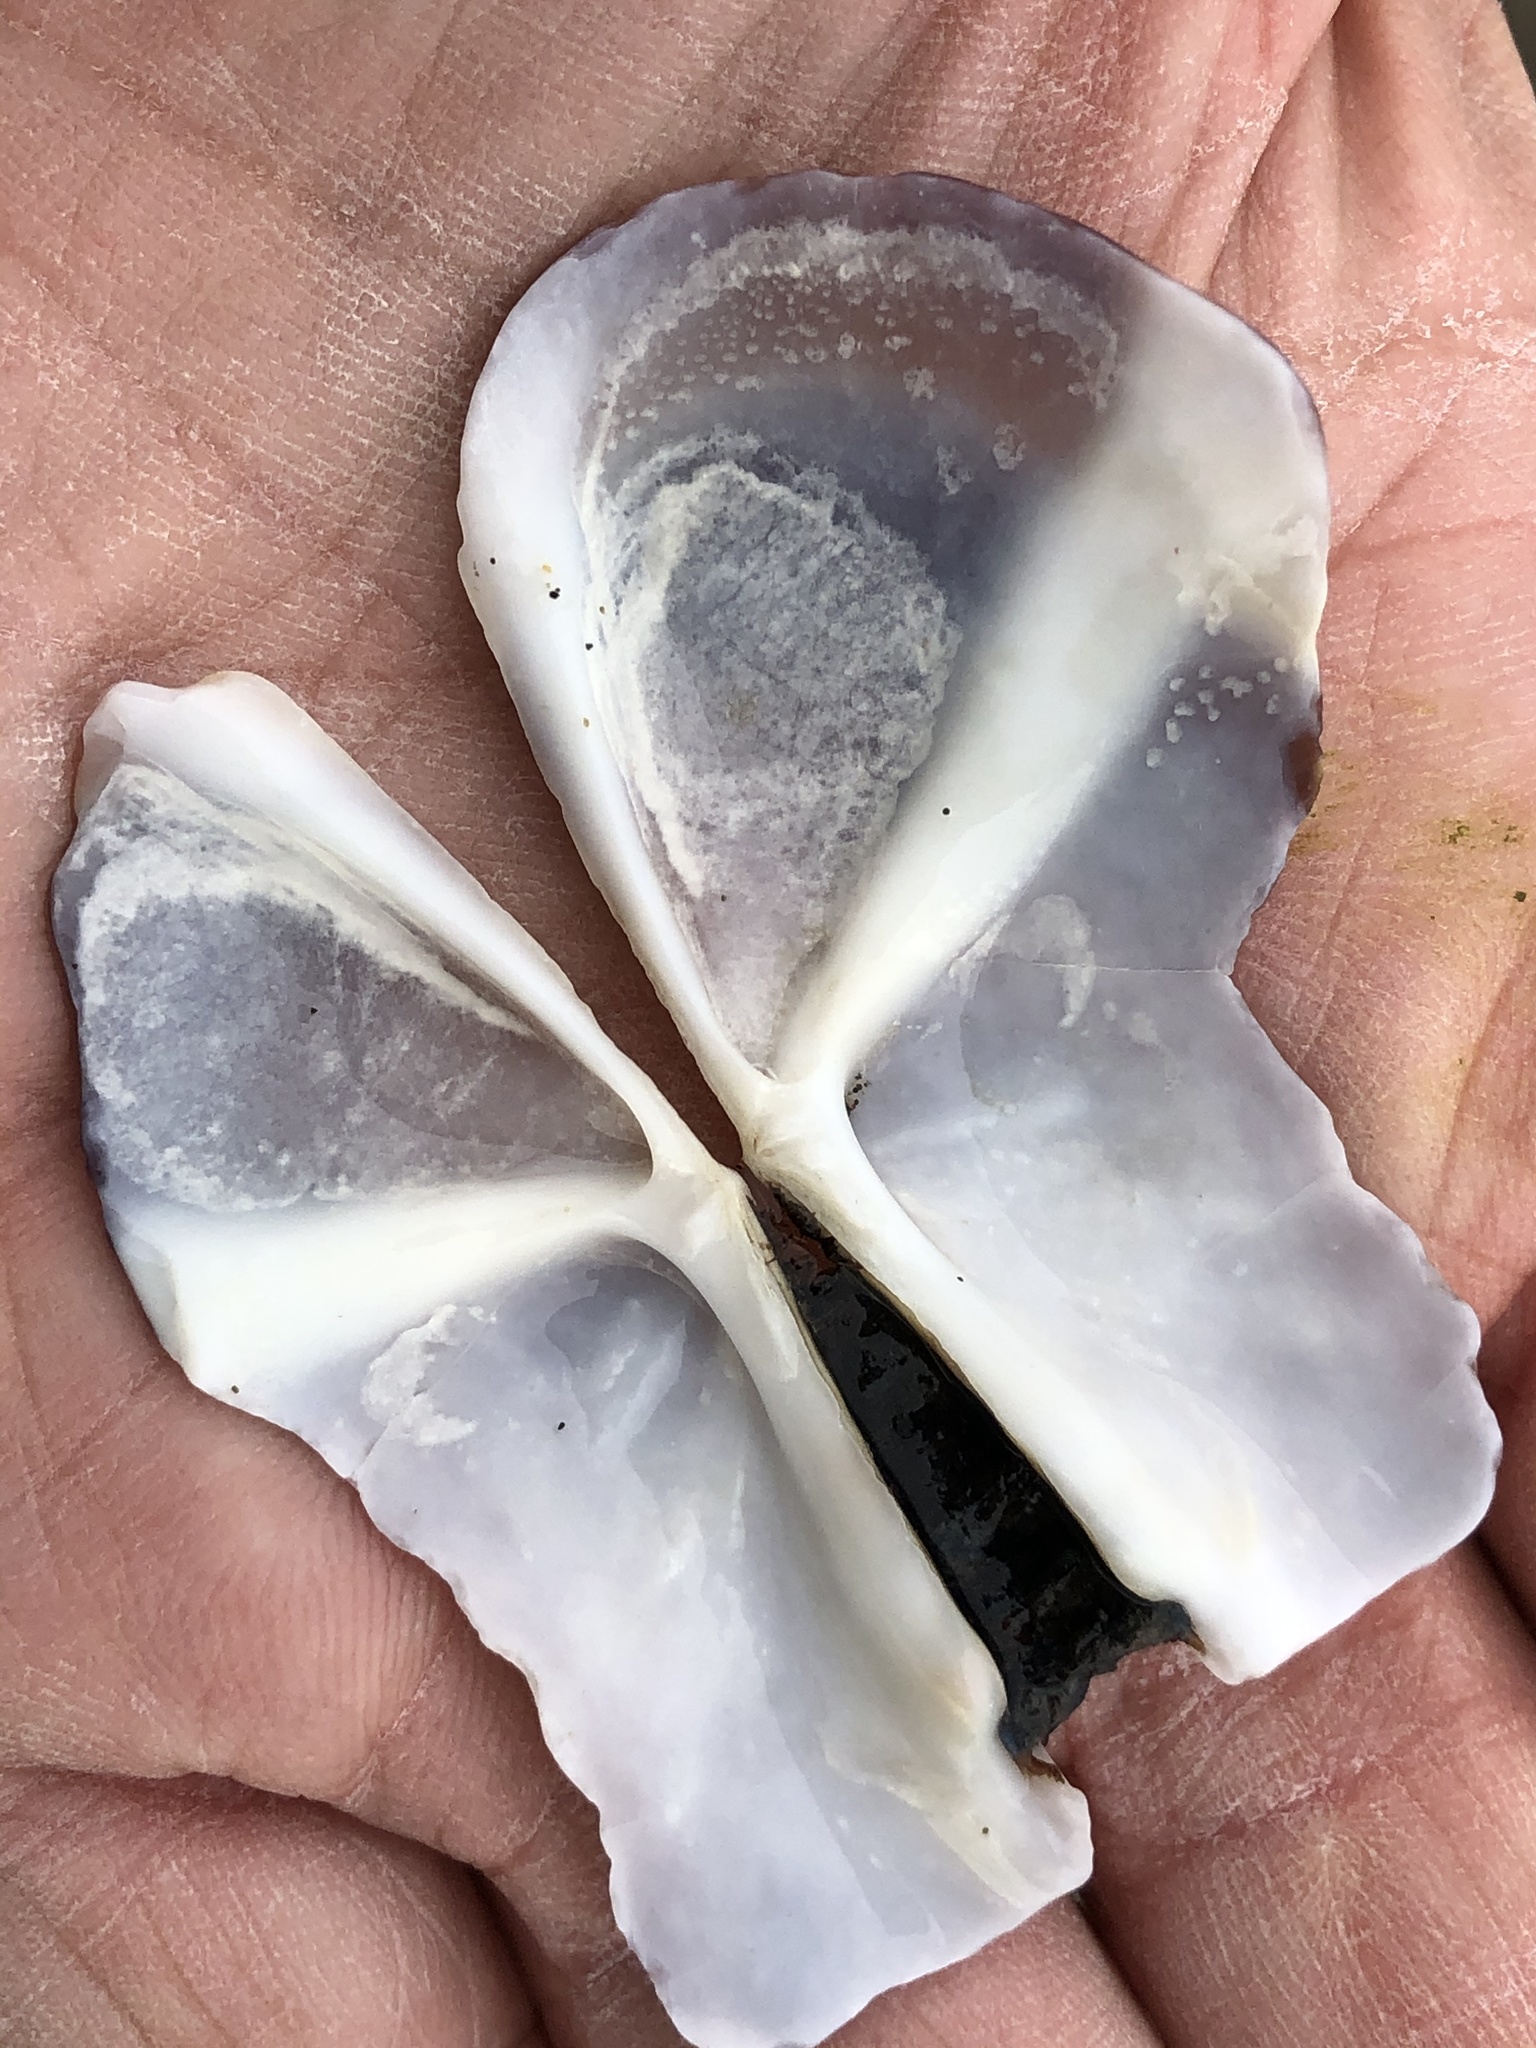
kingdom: Animalia
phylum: Mollusca
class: Bivalvia
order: Adapedonta
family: Pharidae
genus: Siliqua
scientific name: Siliqua patula
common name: Pacific razor clam
